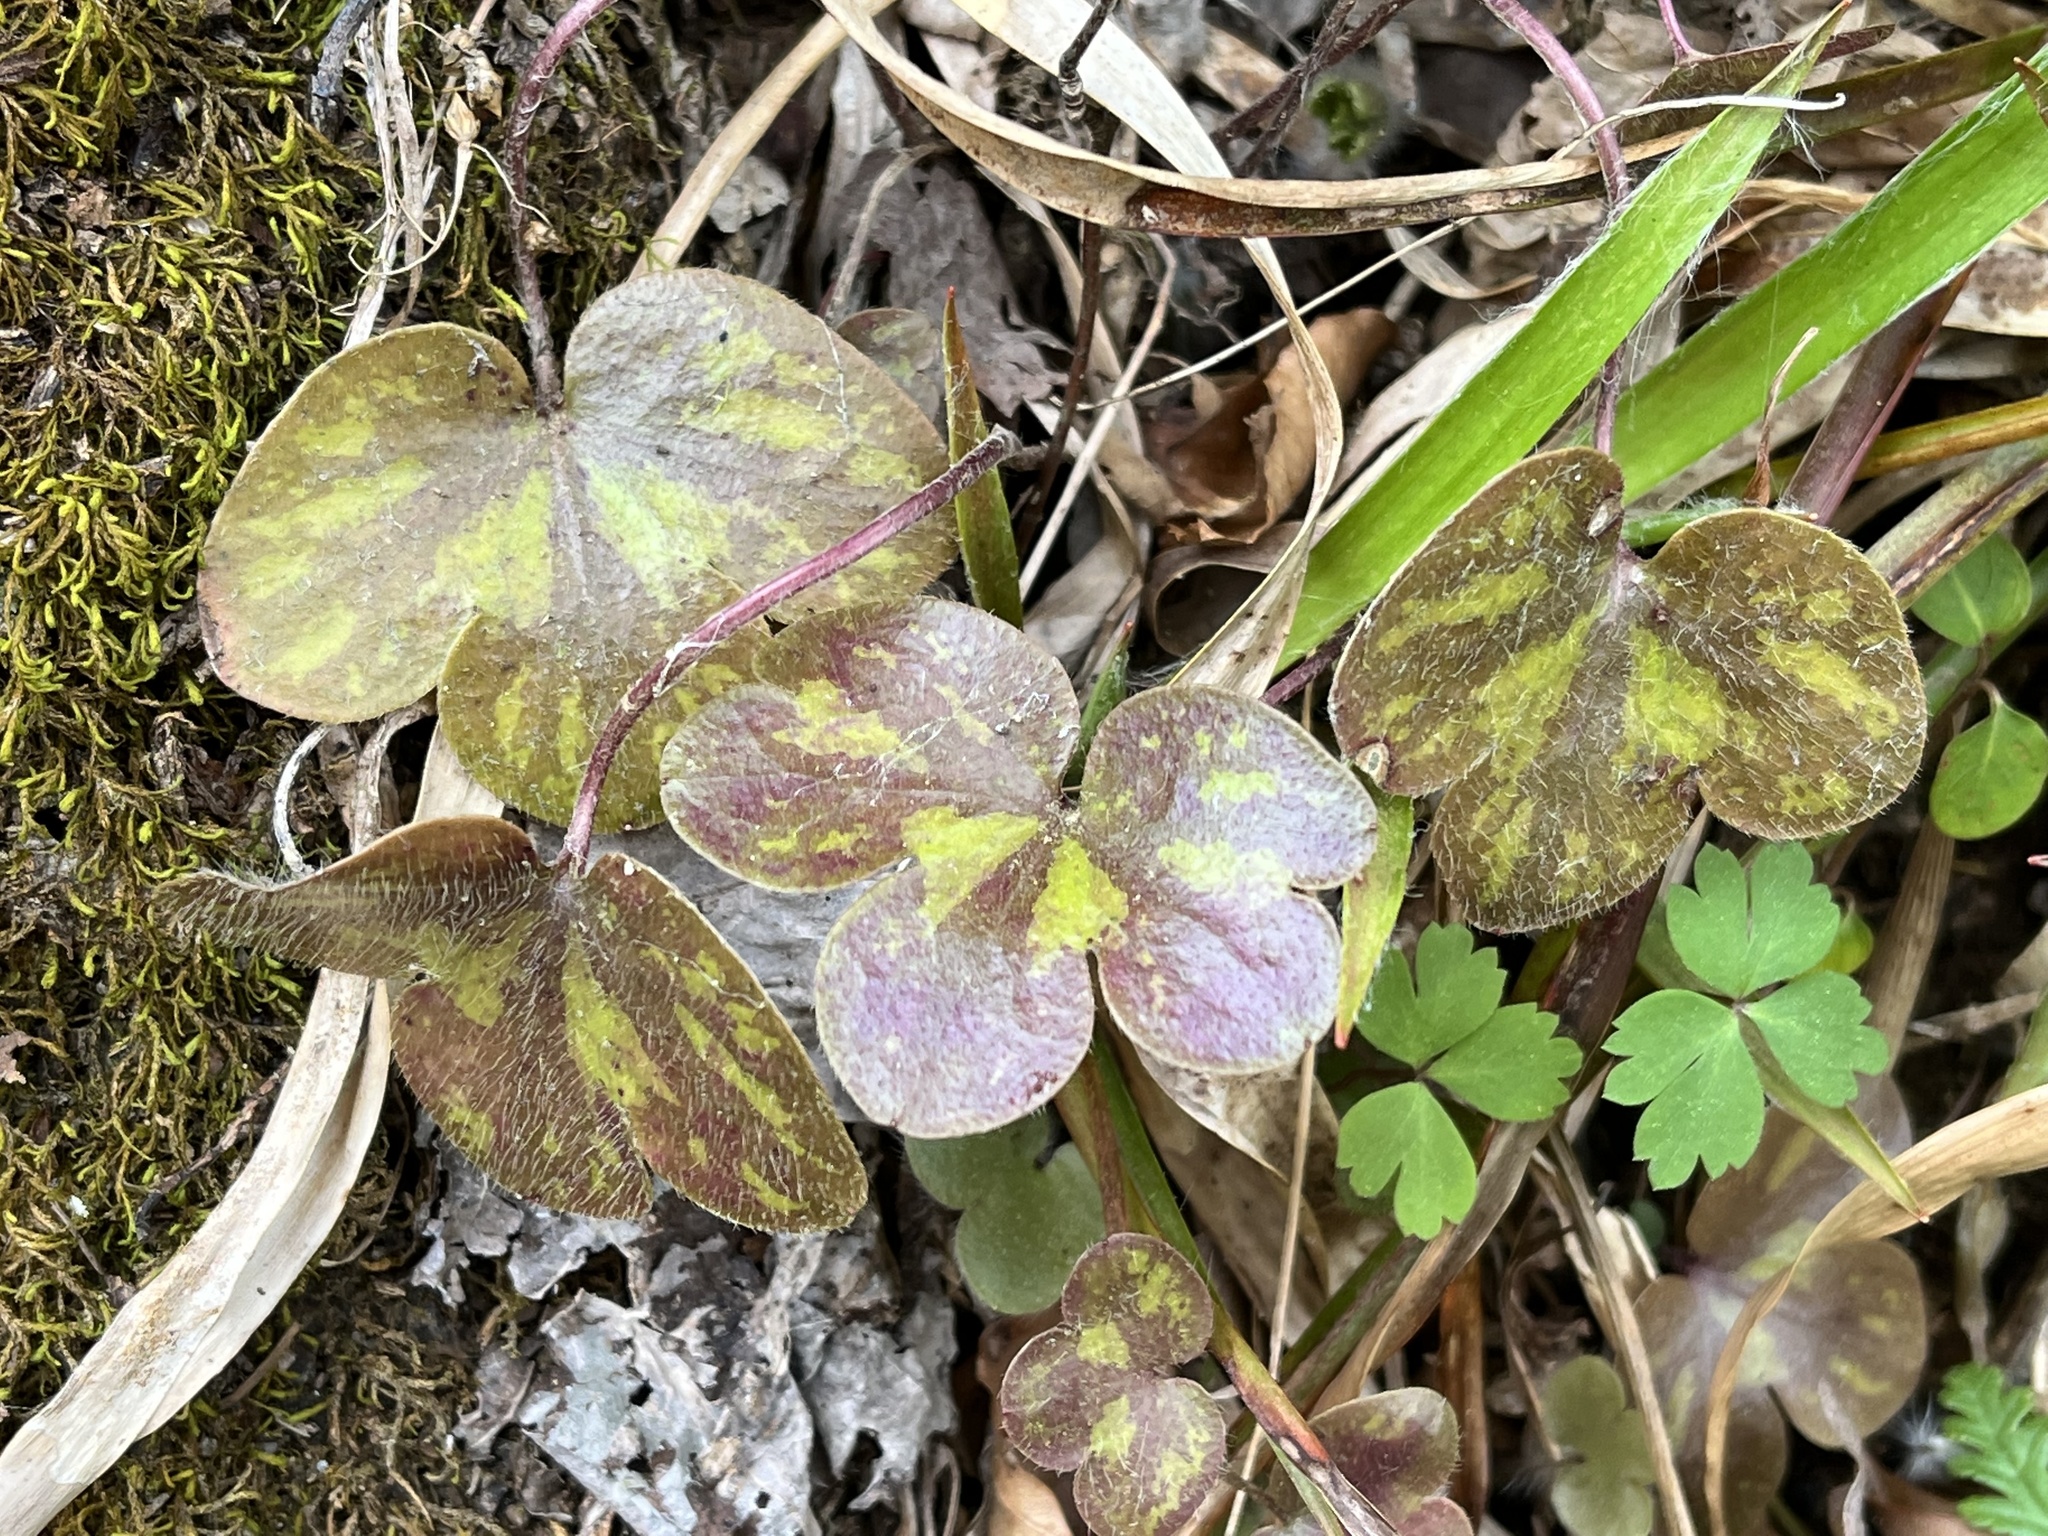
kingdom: Plantae
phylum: Tracheophyta
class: Magnoliopsida
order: Ranunculales
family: Ranunculaceae
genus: Hepatica
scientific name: Hepatica americana
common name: American hepatica
